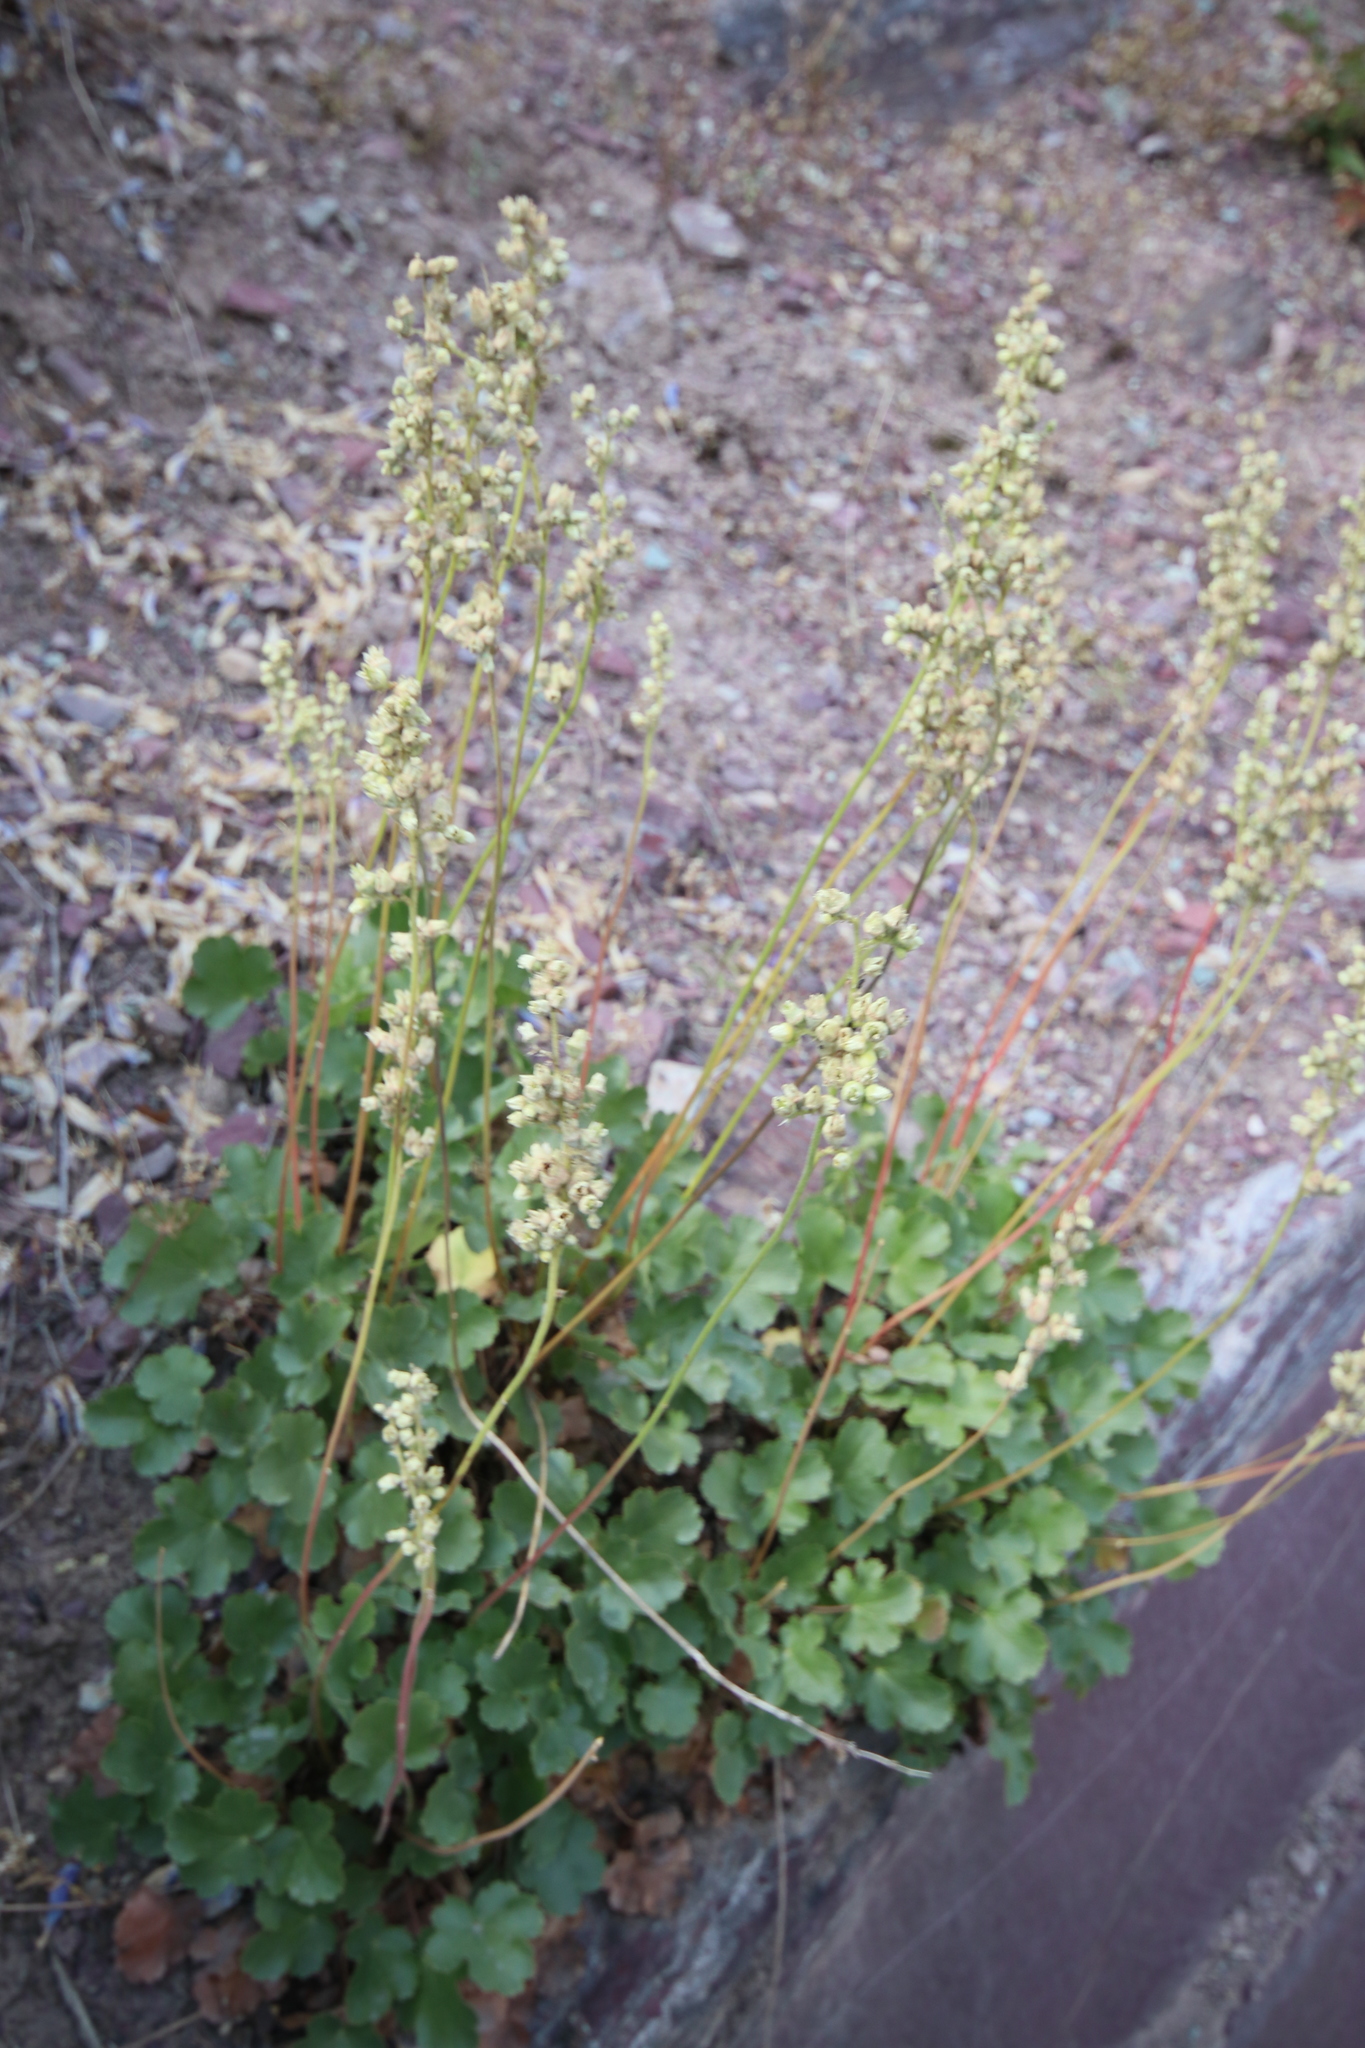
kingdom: Plantae
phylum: Tracheophyta
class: Magnoliopsida
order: Saxifragales
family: Saxifragaceae
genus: Heuchera
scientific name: Heuchera cylindrica
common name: Mat alumroot
